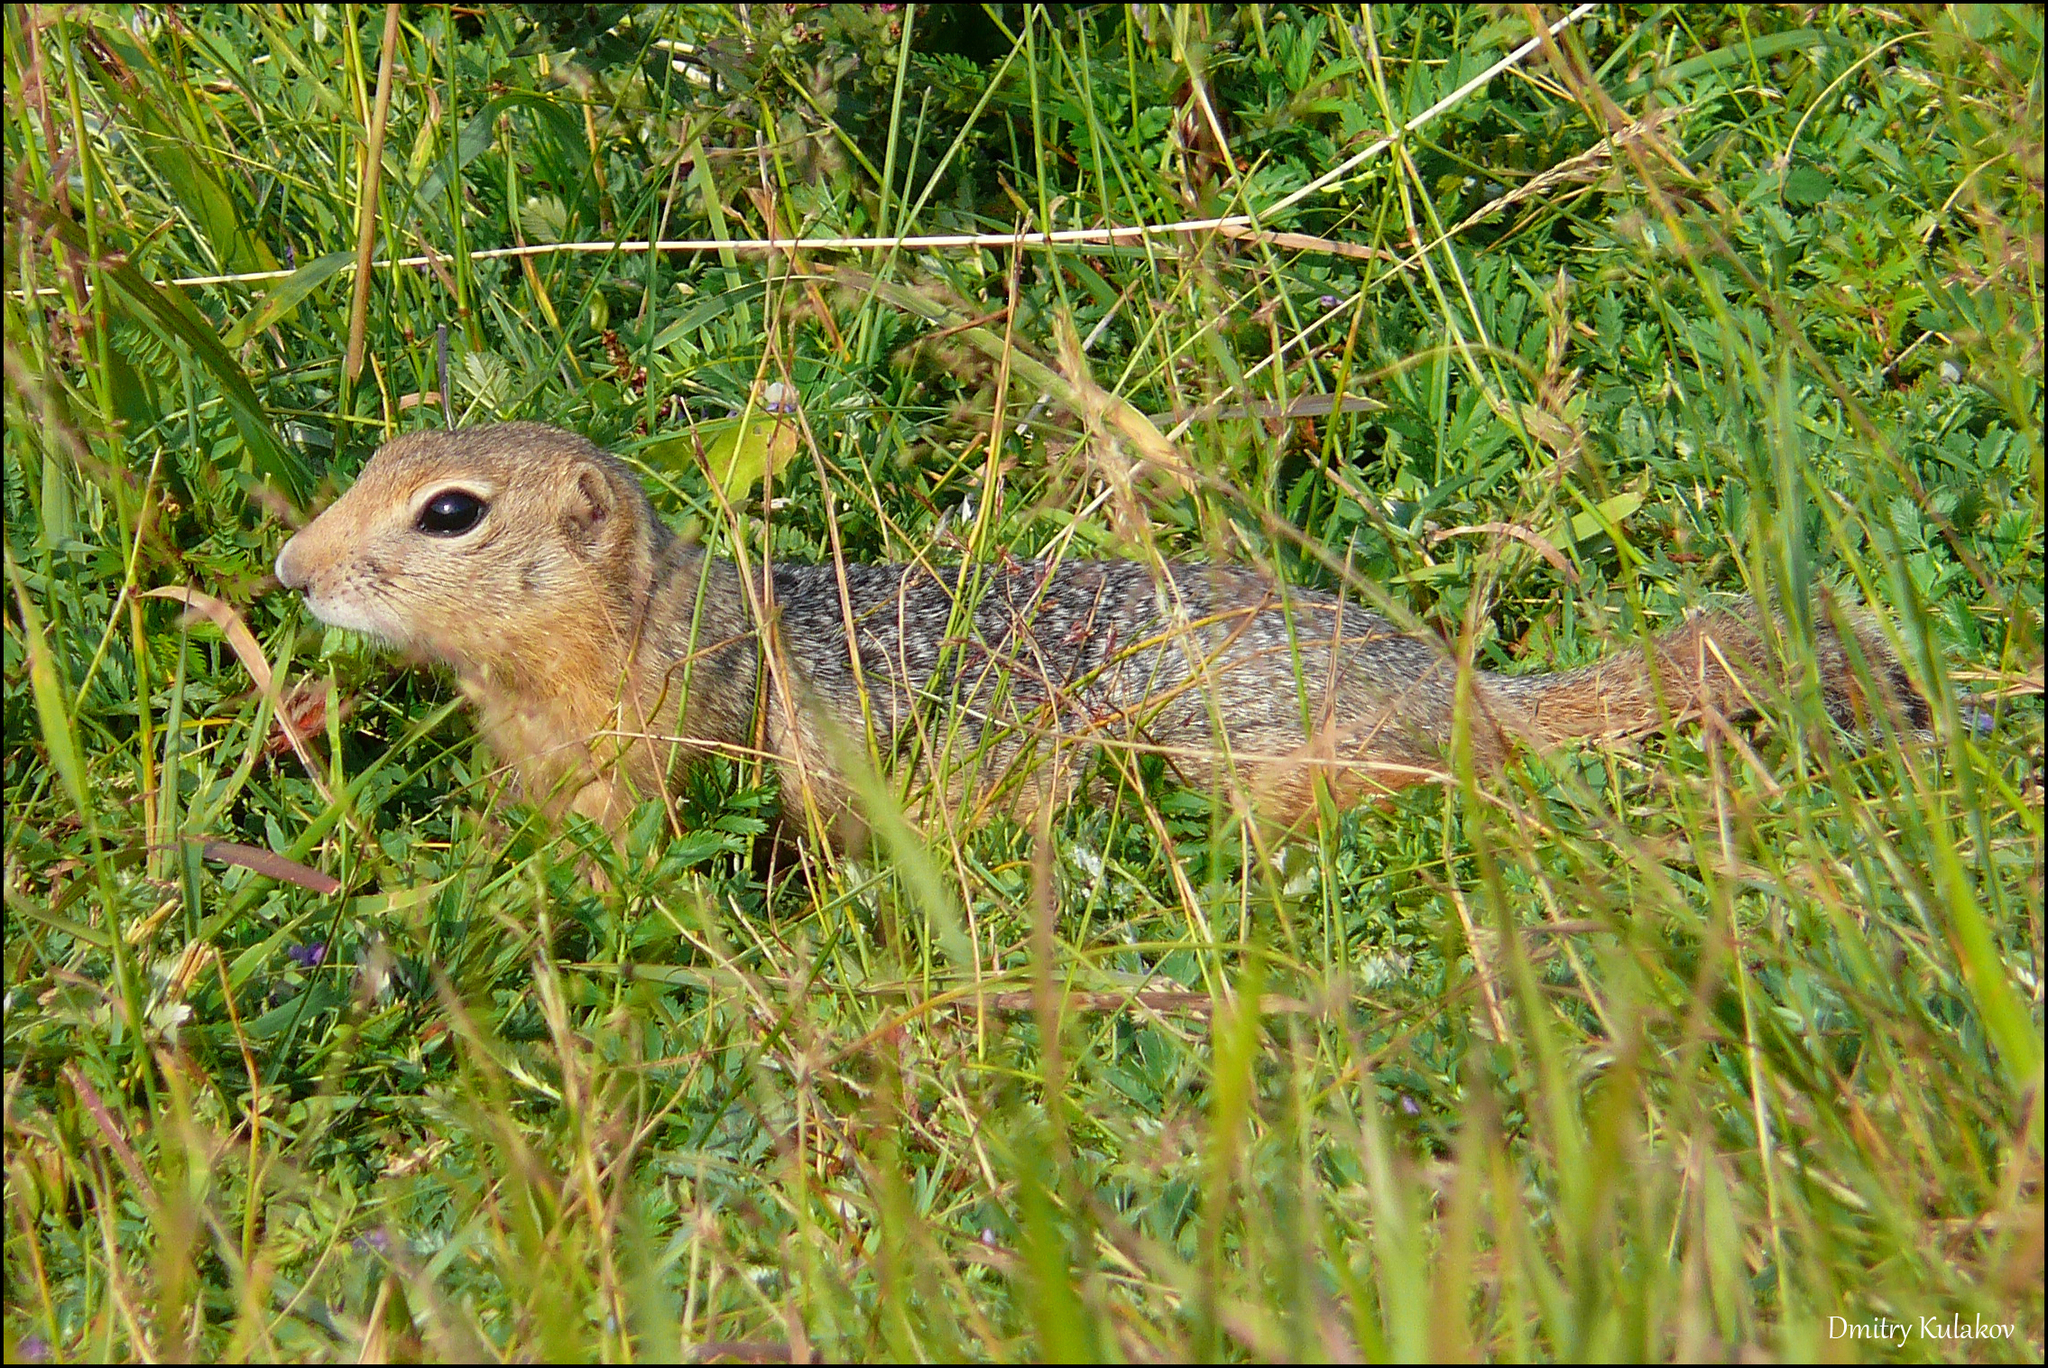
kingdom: Animalia
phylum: Chordata
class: Mammalia
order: Rodentia
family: Sciuridae
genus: Urocitellus
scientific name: Urocitellus undulatus
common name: Long-tailed ground squirrel
